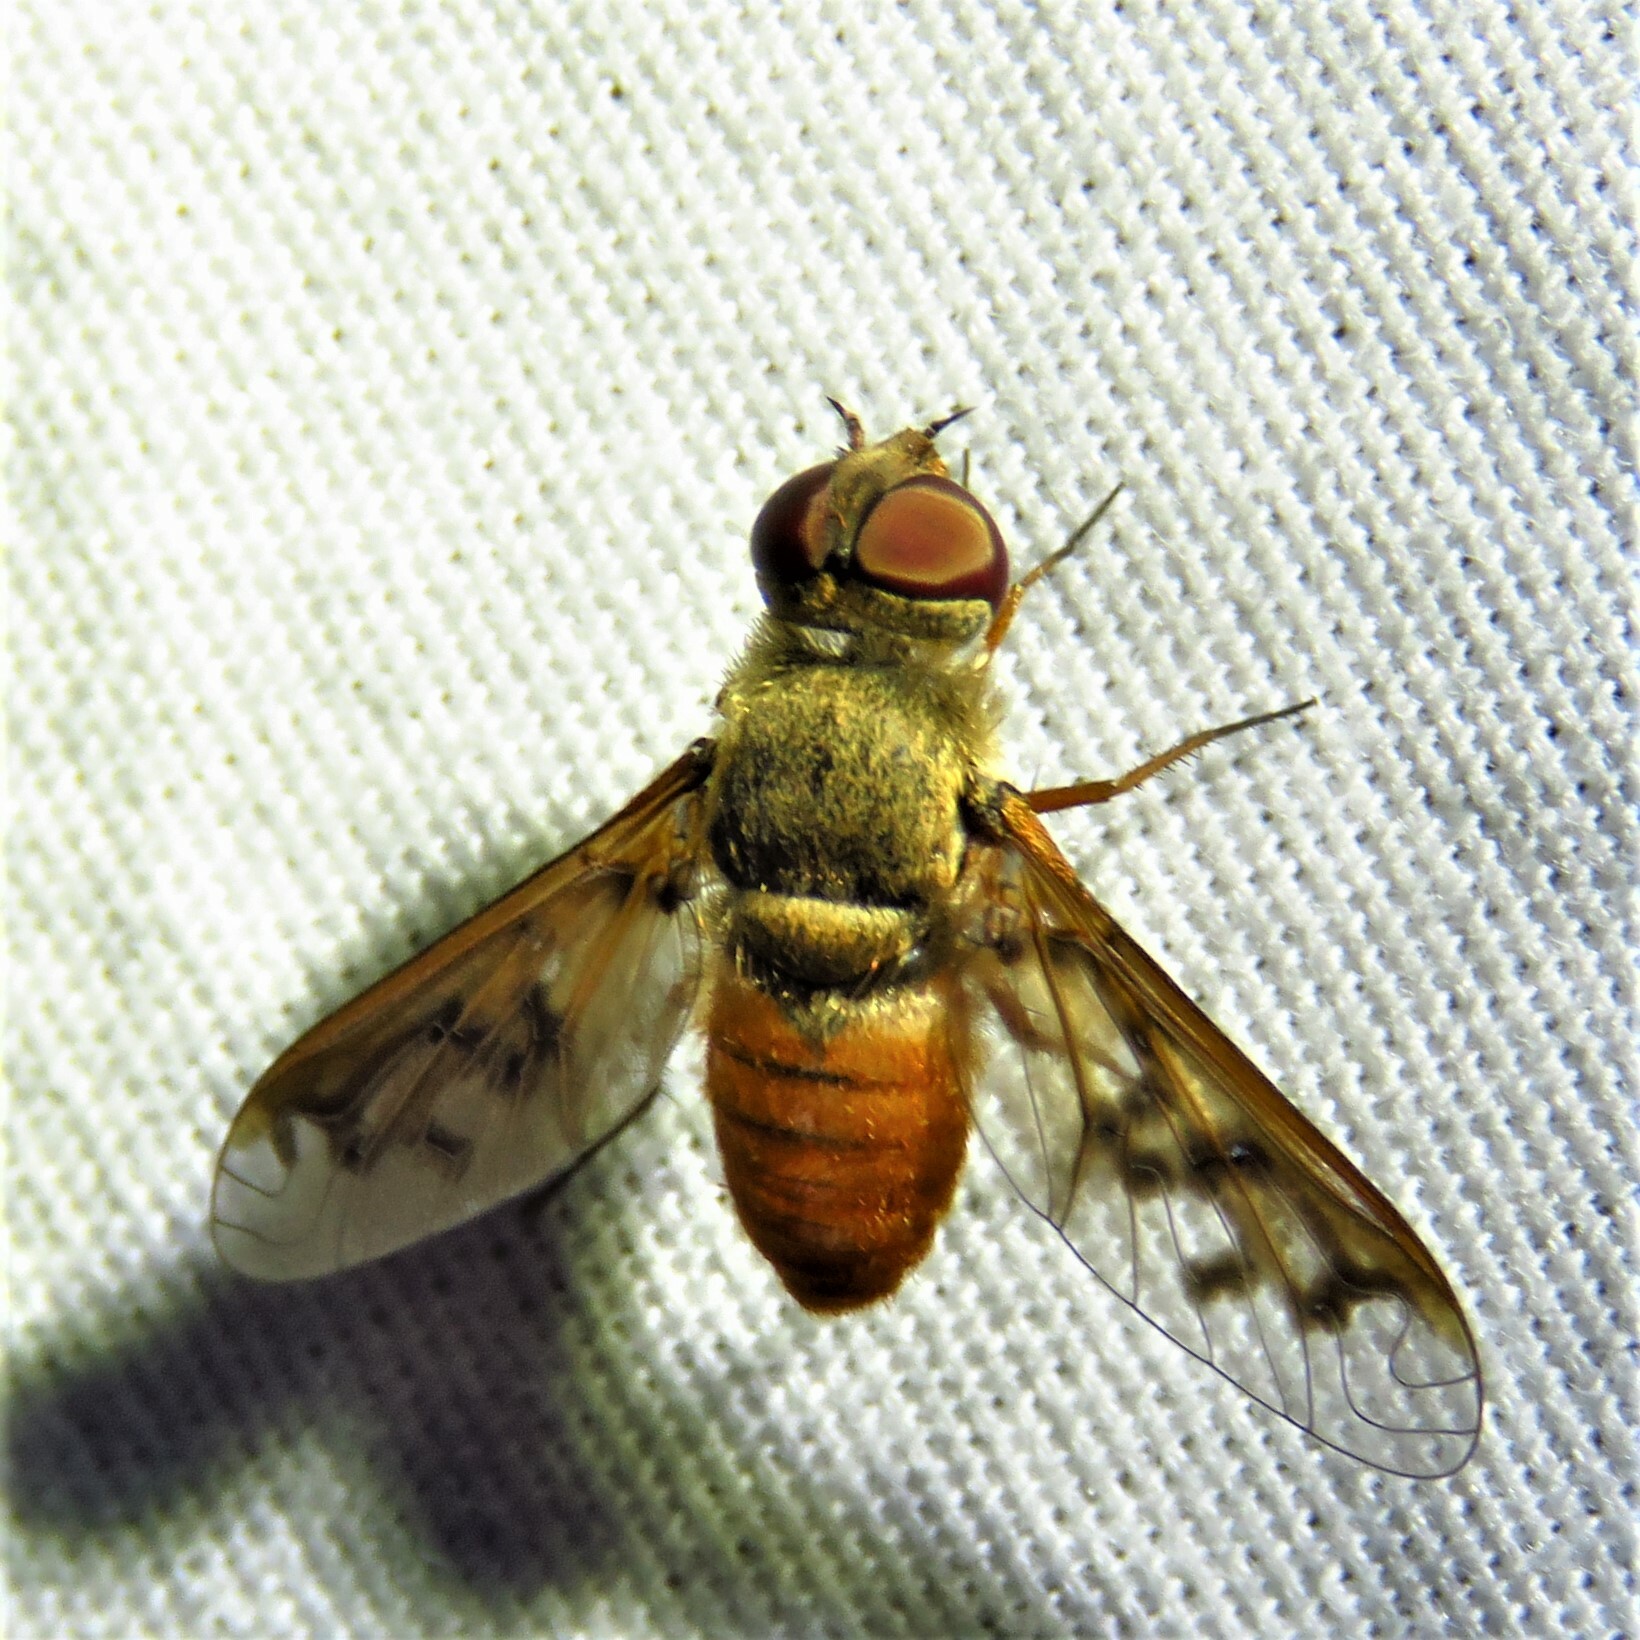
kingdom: Animalia
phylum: Arthropoda
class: Insecta
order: Diptera
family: Bombyliidae
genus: Neodiplocampta
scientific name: Neodiplocampta miranda
